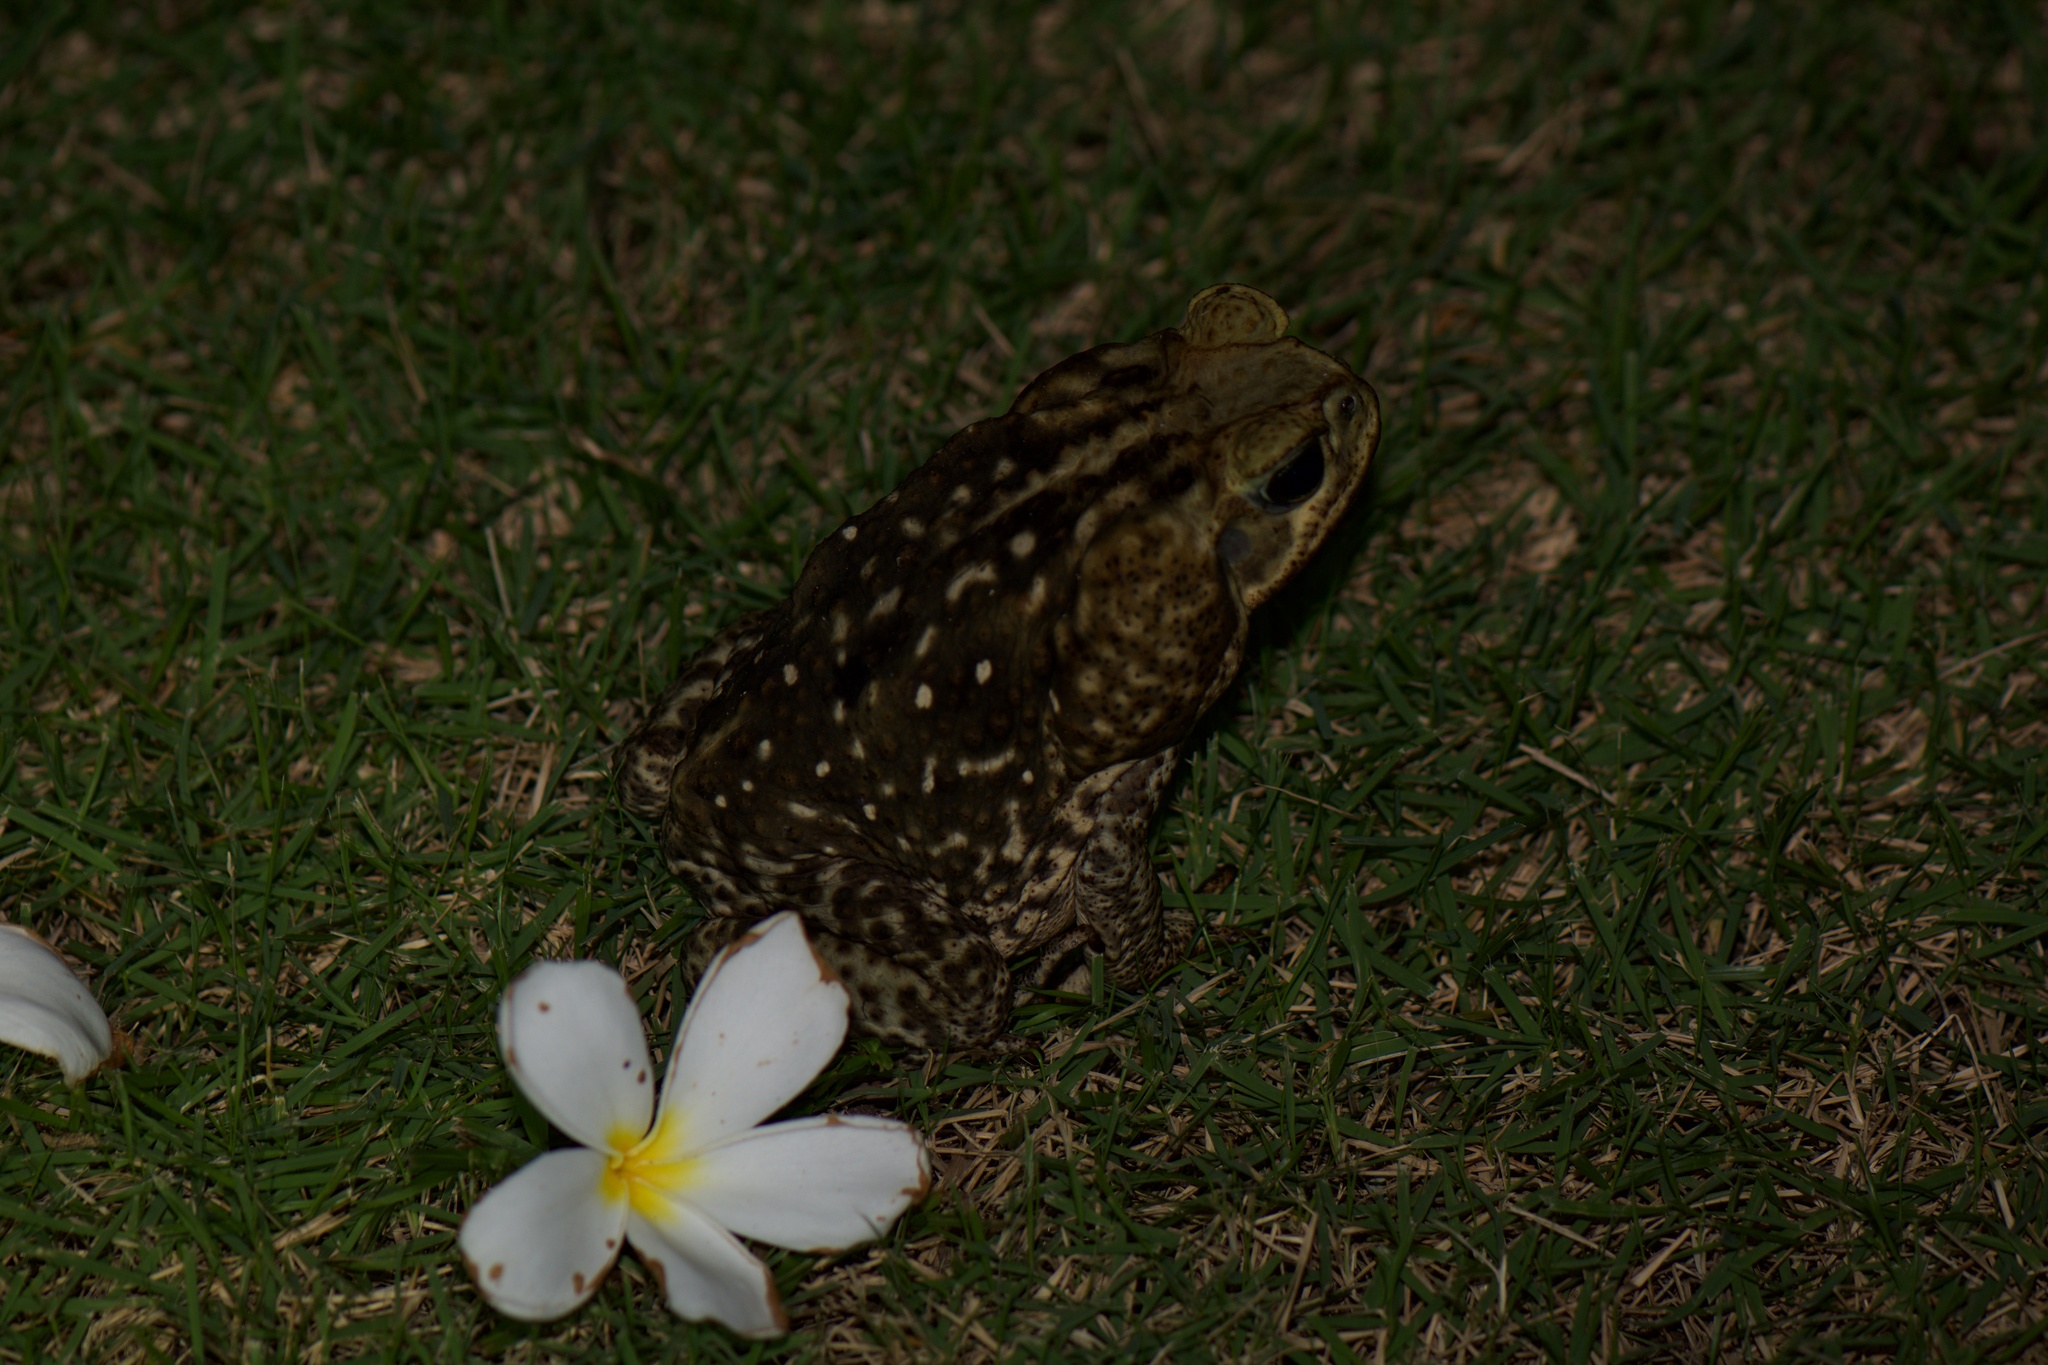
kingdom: Animalia
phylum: Chordata
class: Amphibia
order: Anura
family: Bufonidae
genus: Rhinella
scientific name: Rhinella horribilis
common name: Mesoamerican cane toad
